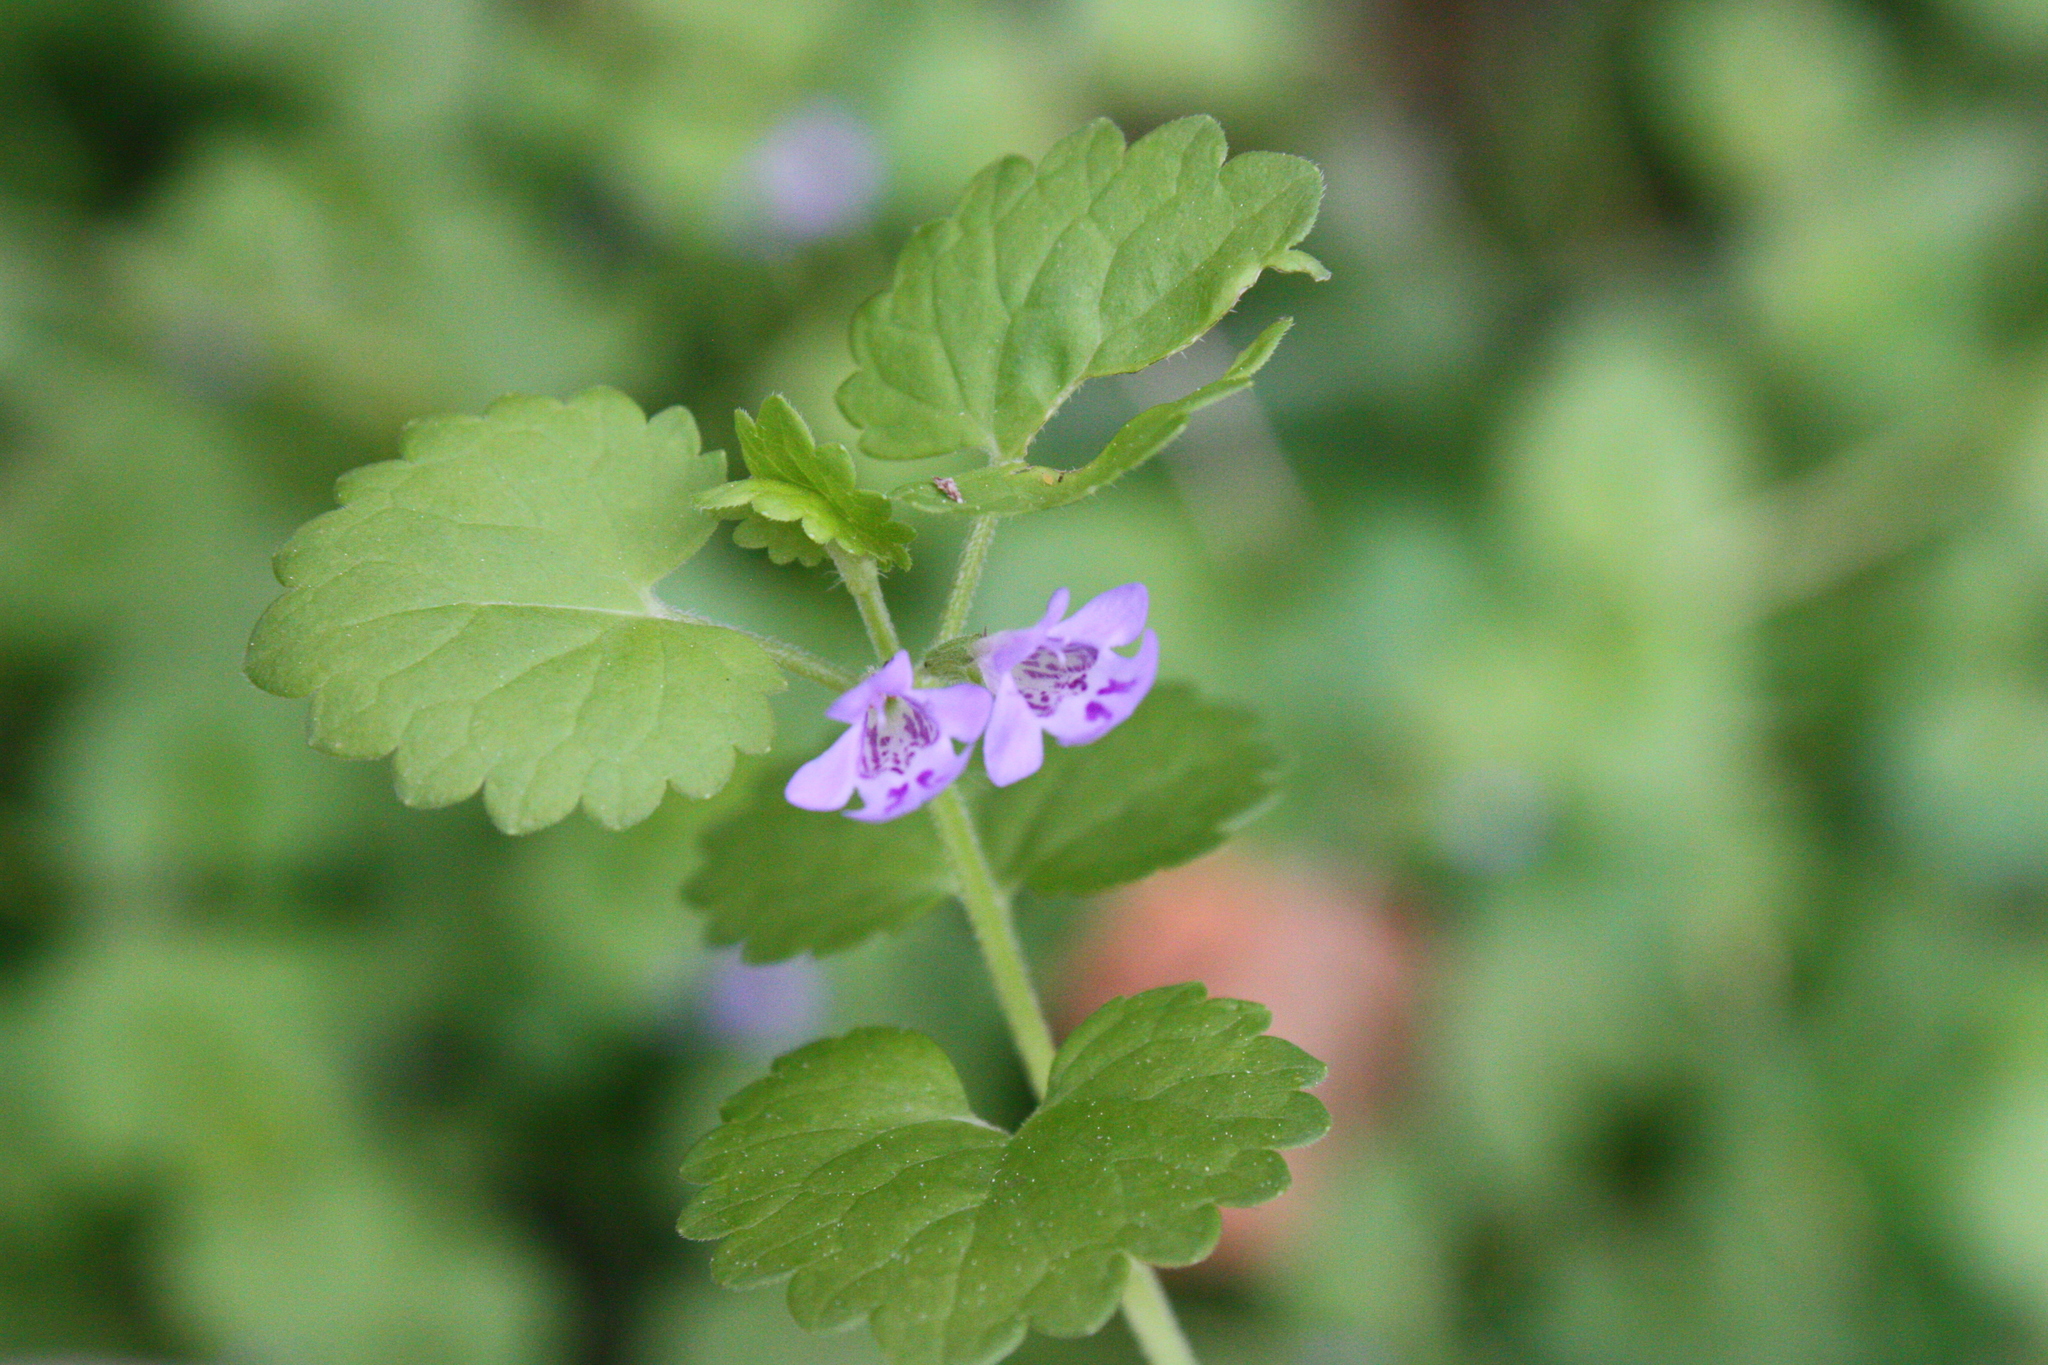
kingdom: Plantae
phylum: Tracheophyta
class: Magnoliopsida
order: Lamiales
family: Lamiaceae
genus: Glechoma
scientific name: Glechoma hederacea
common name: Ground ivy
